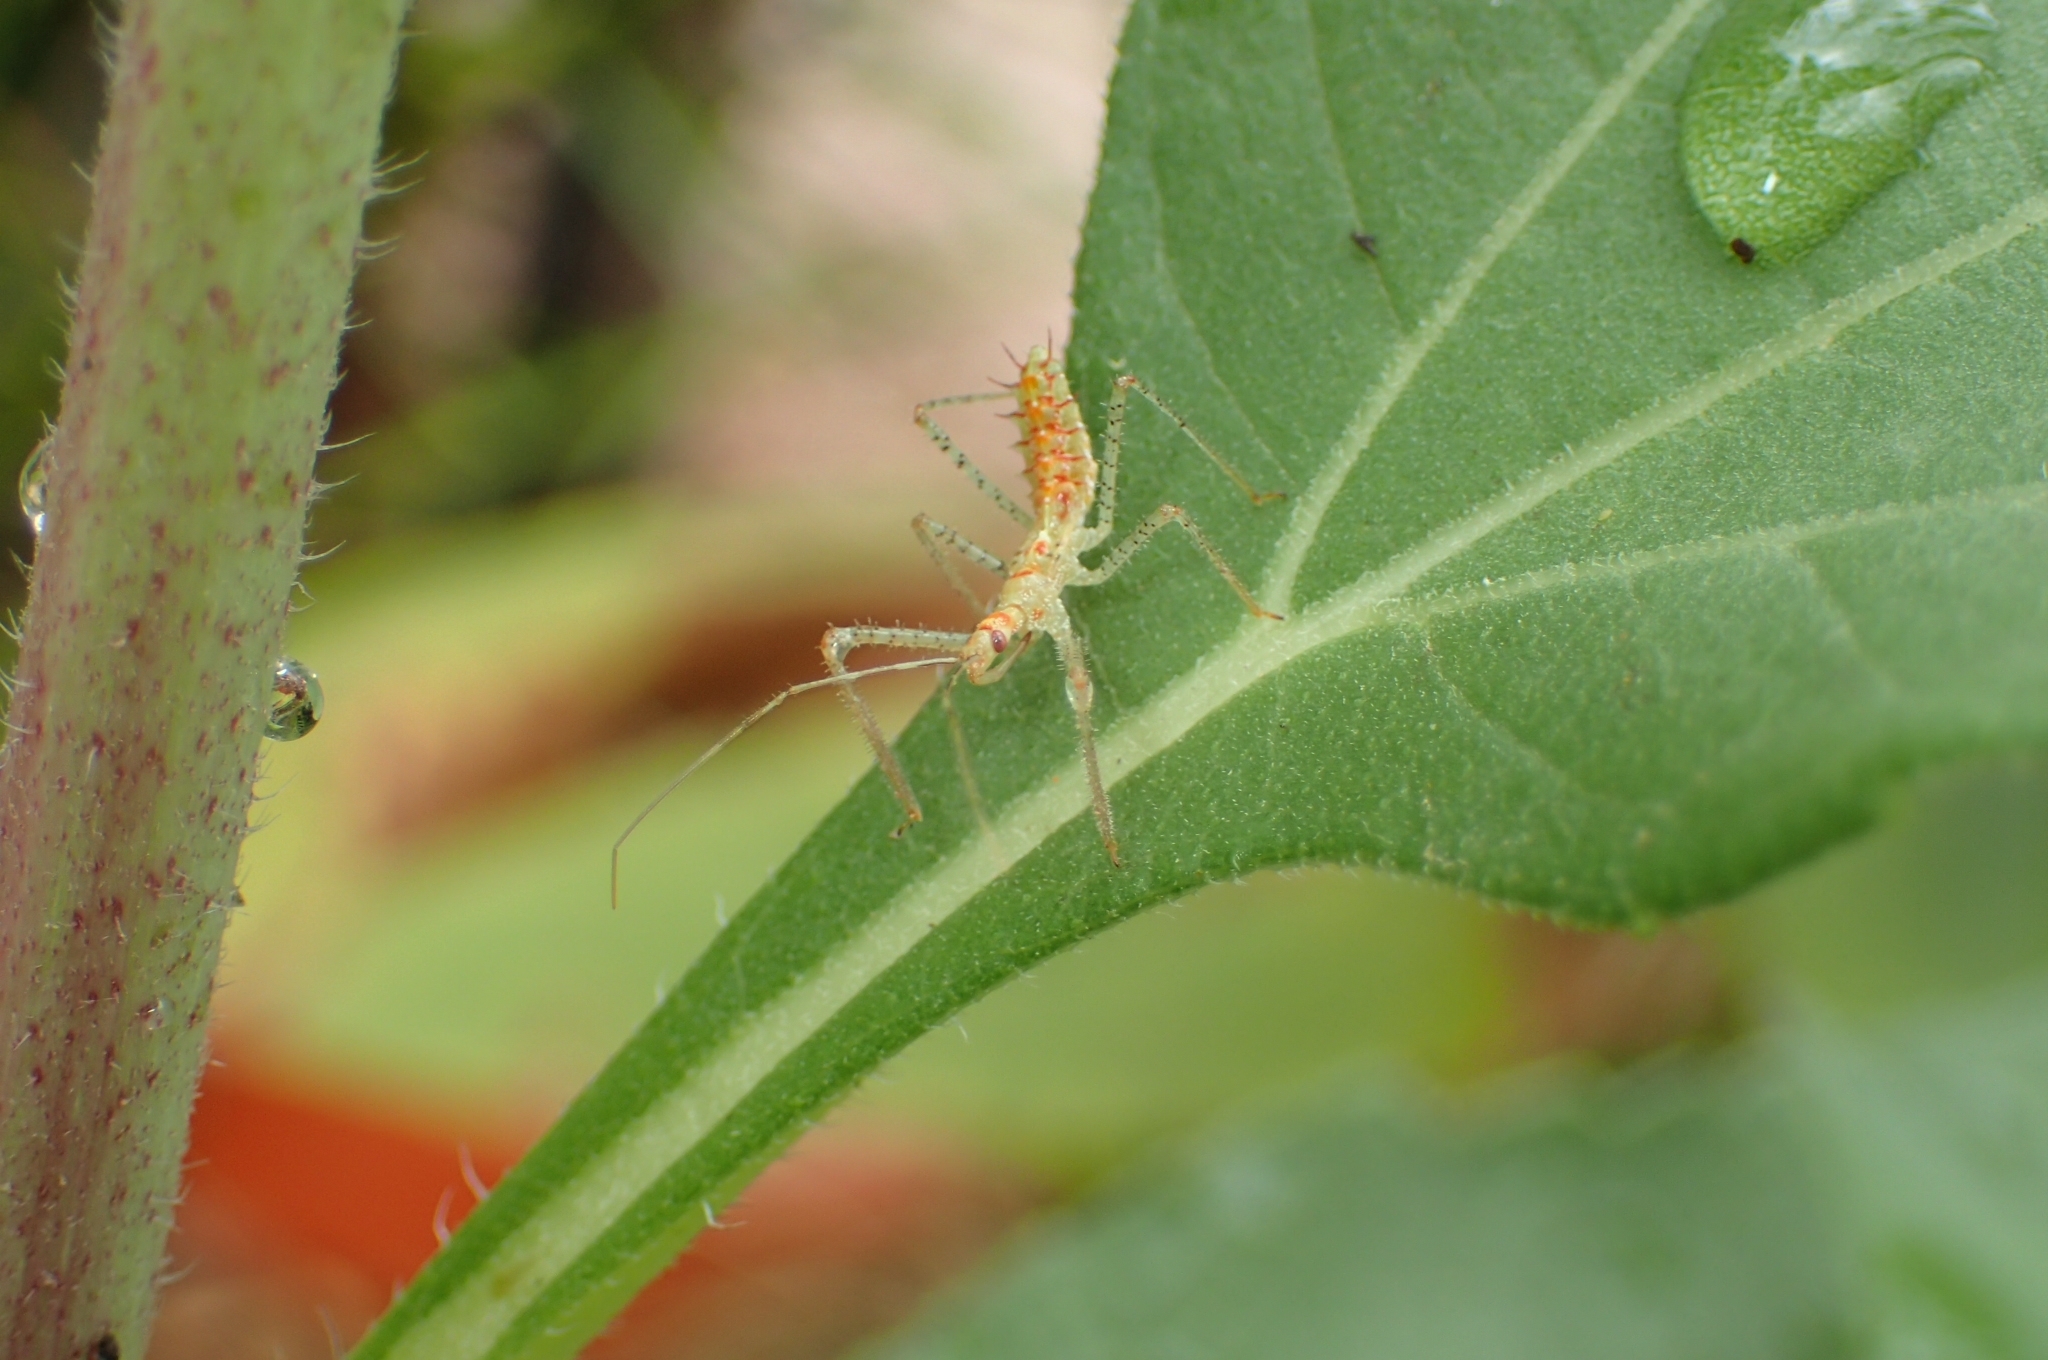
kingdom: Animalia
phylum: Arthropoda
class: Insecta
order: Hemiptera
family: Reduviidae
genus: Zelus
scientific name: Zelus renardii
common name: Assassin bug
